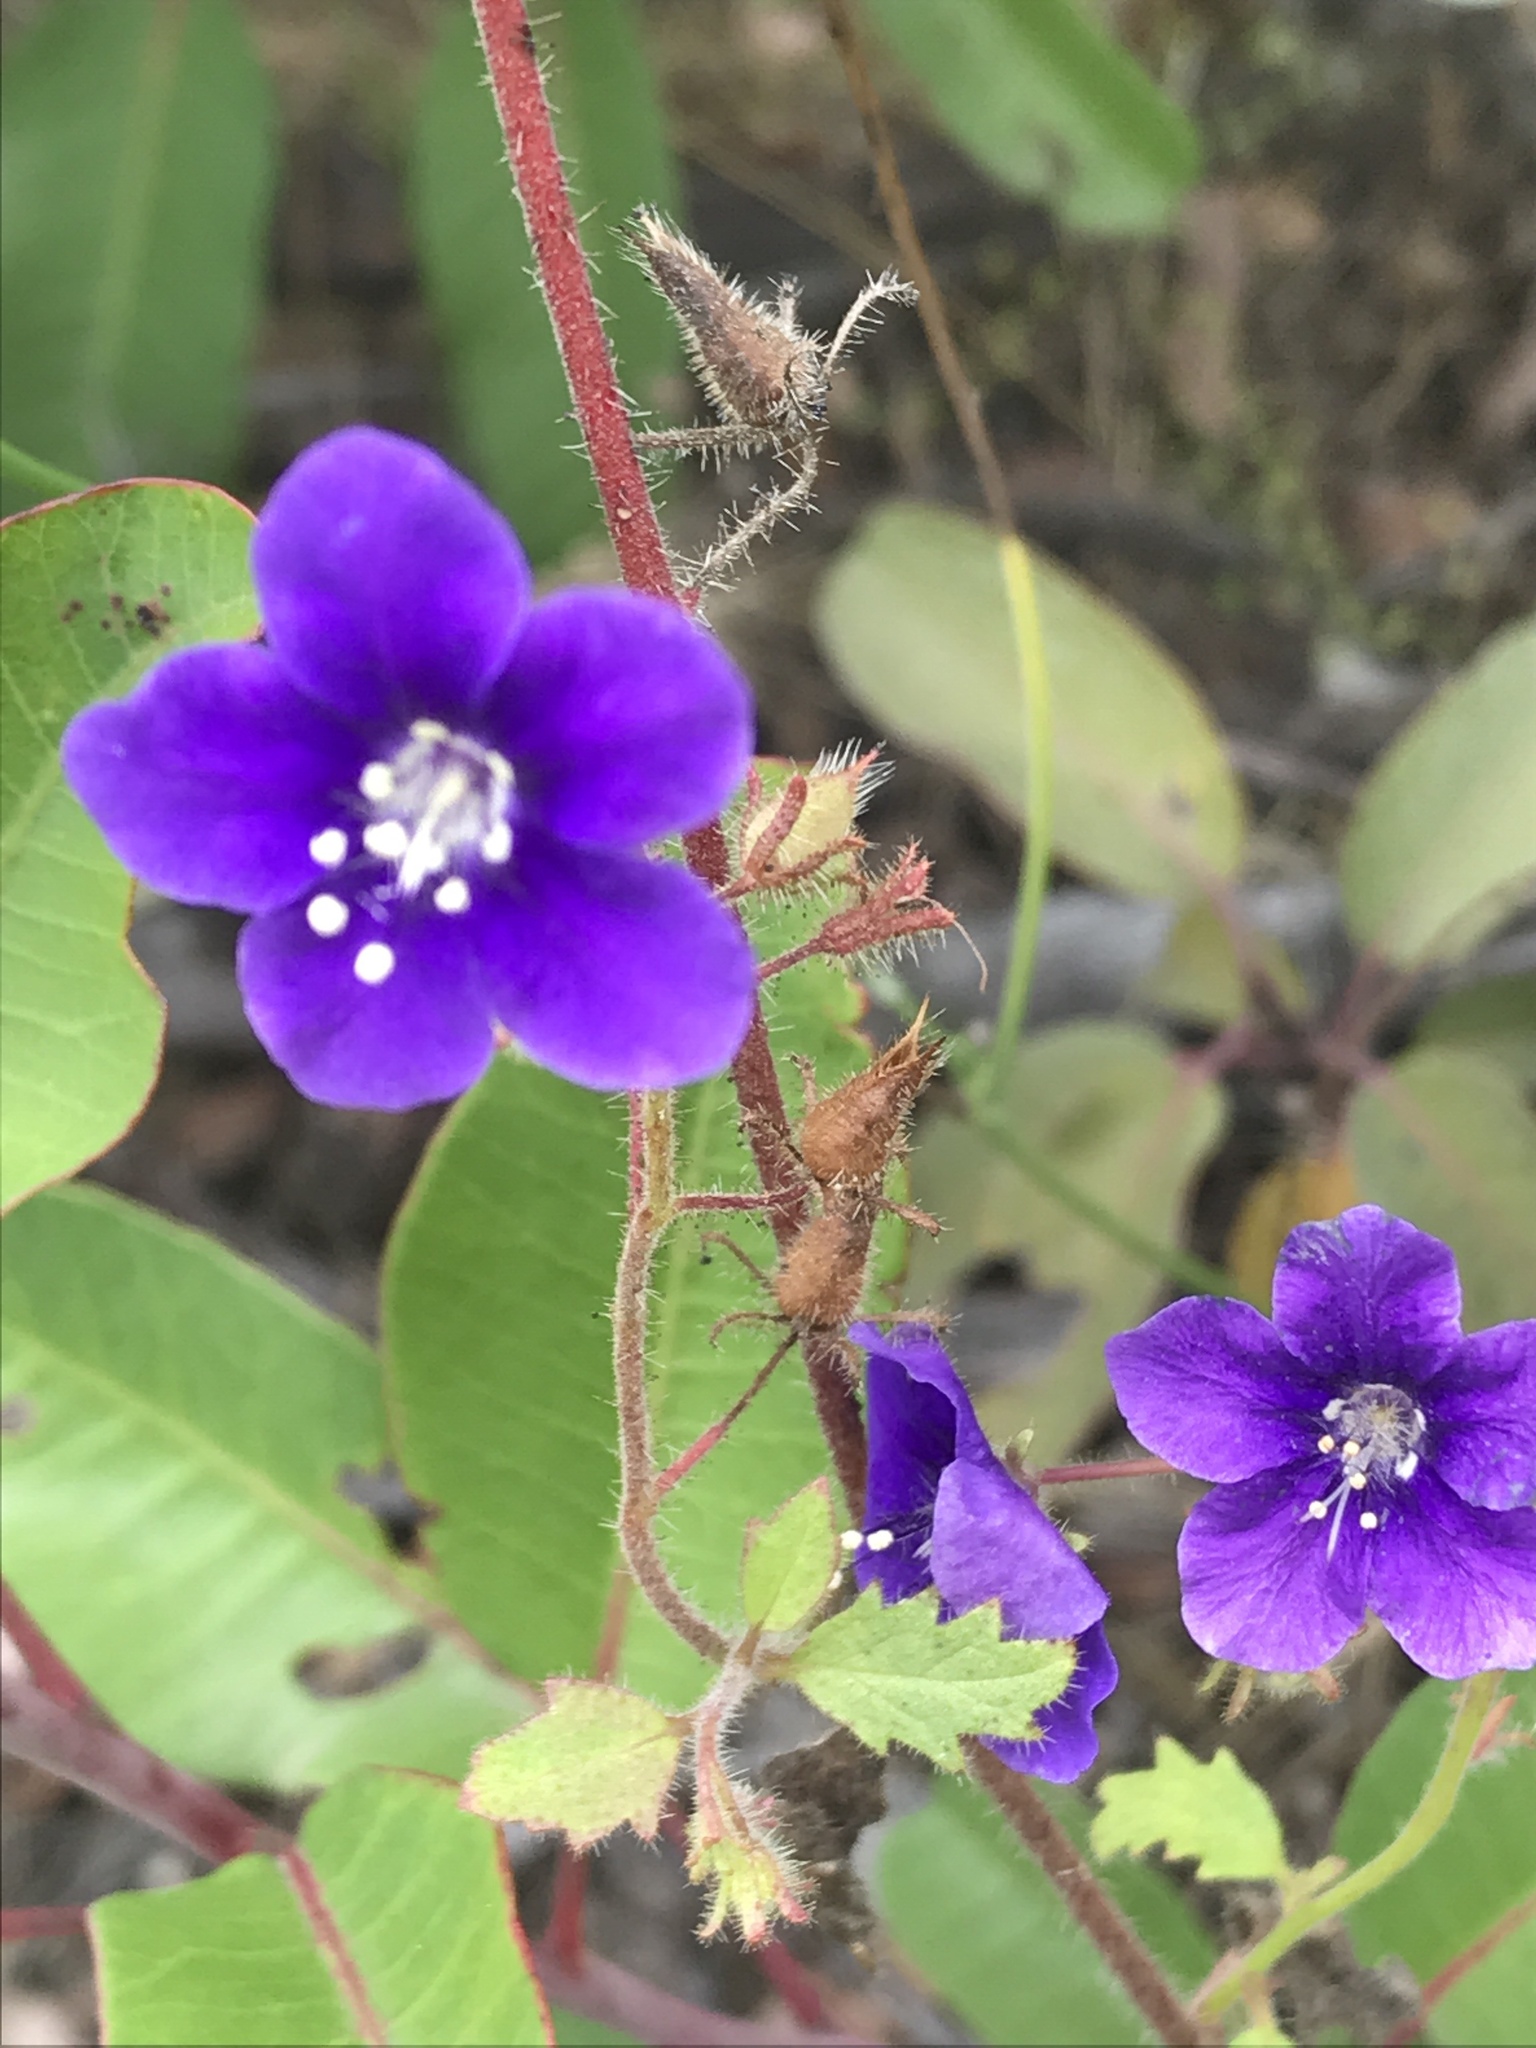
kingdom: Plantae
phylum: Tracheophyta
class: Magnoliopsida
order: Boraginales
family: Hydrophyllaceae
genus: Phacelia
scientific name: Phacelia parryi
